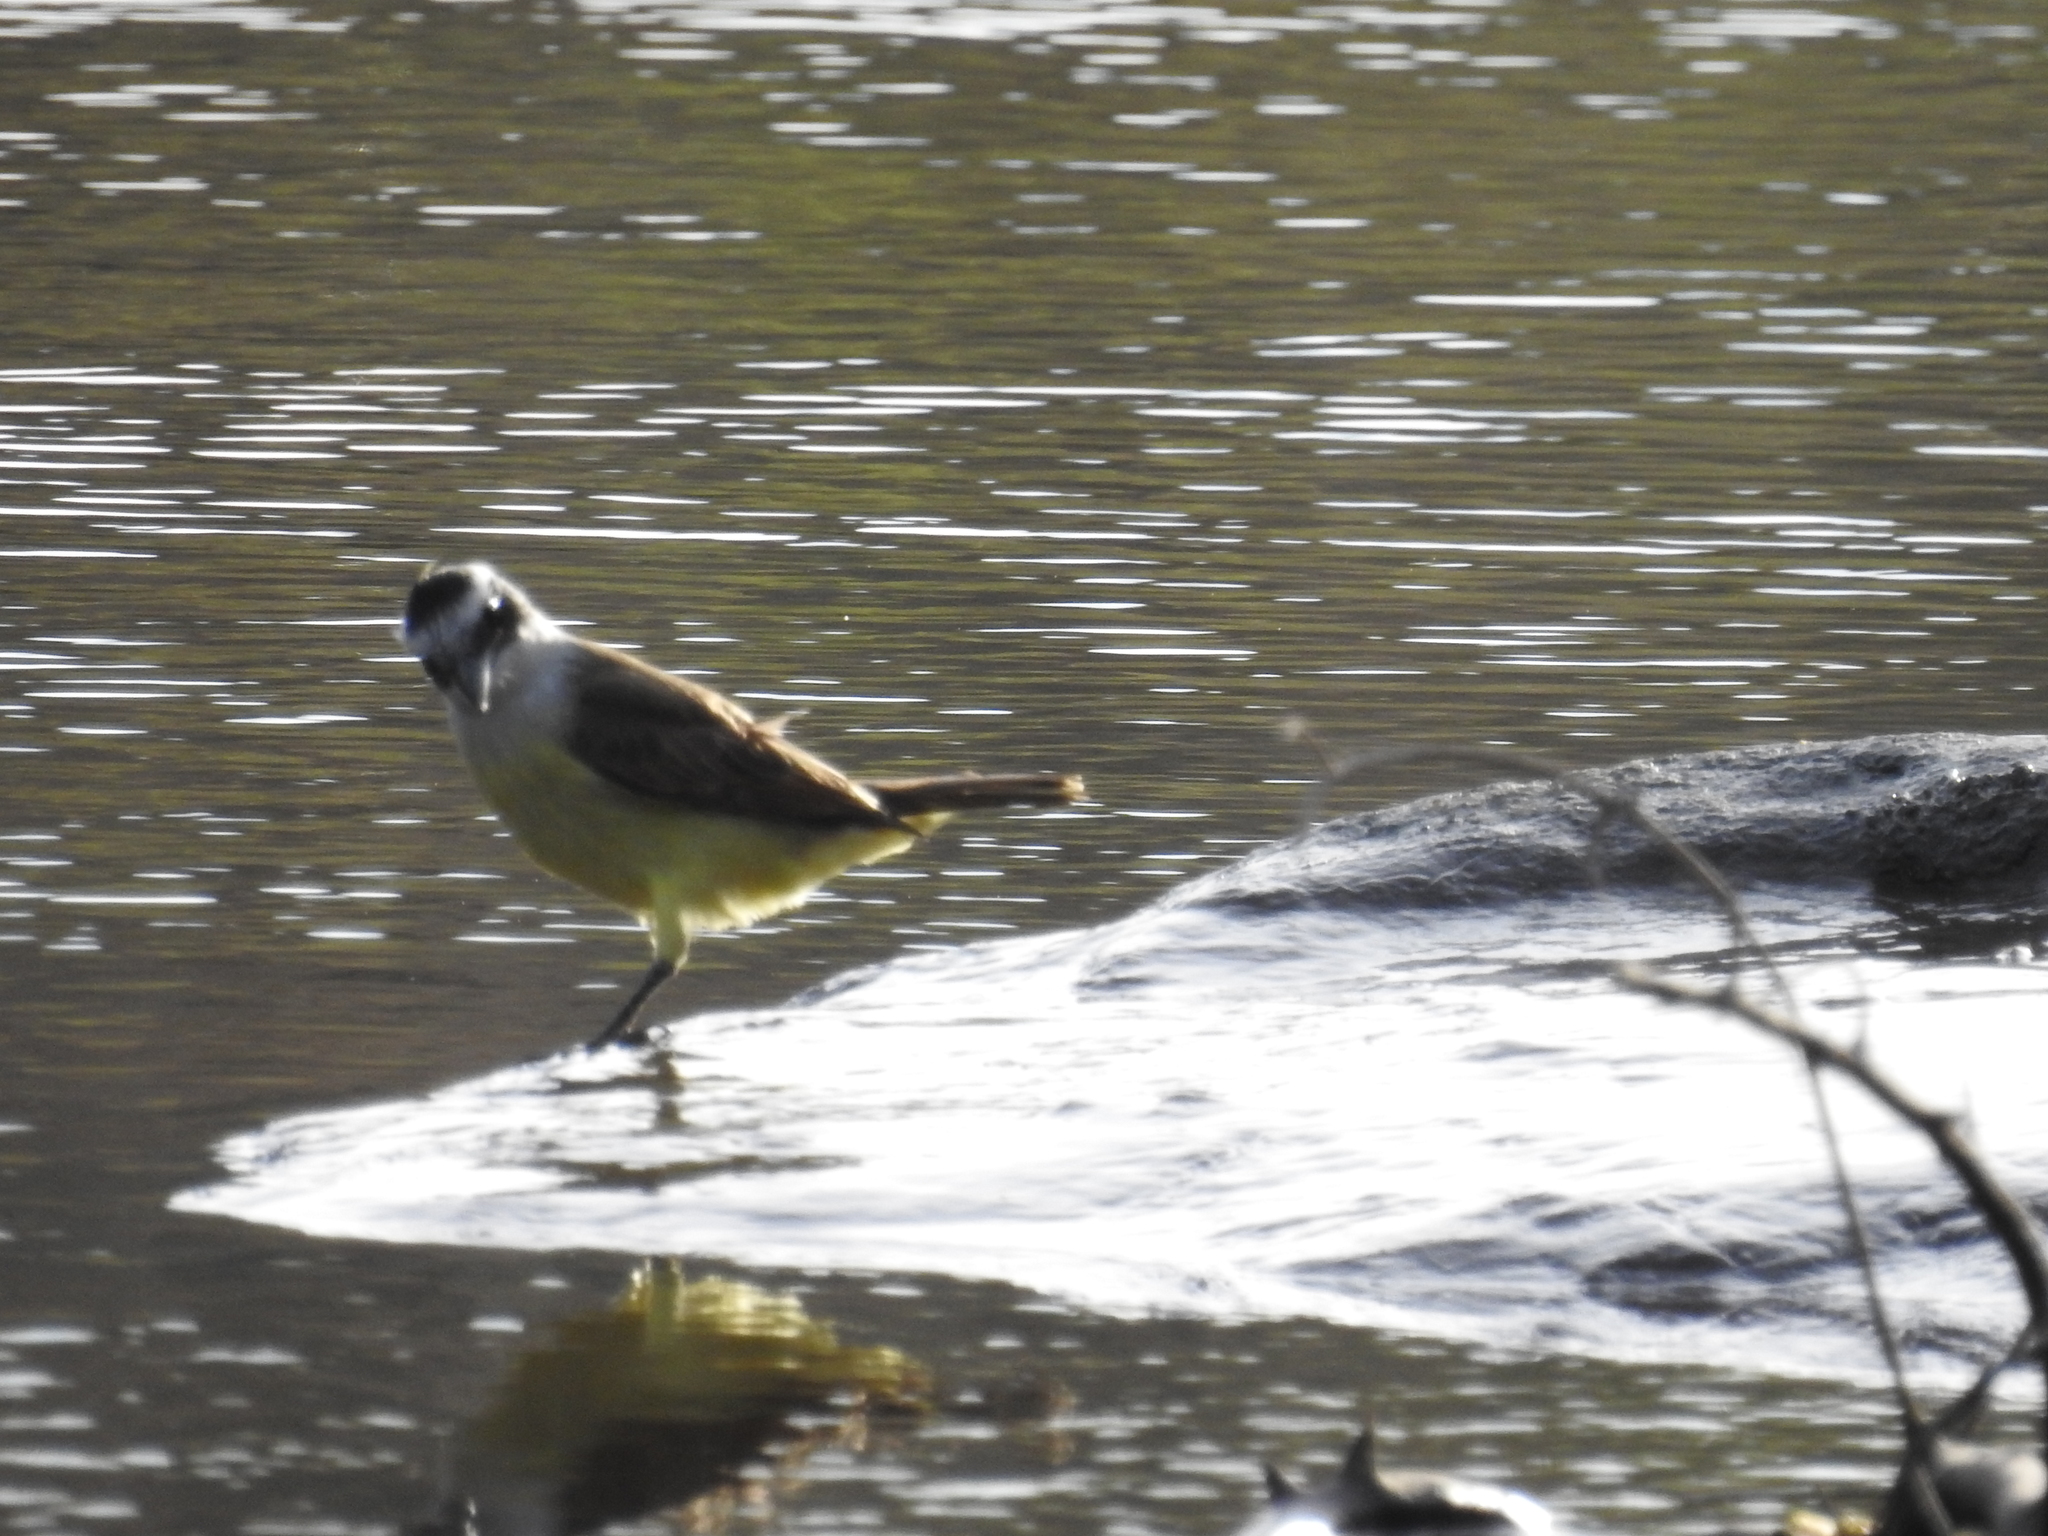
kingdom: Animalia
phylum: Chordata
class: Aves
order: Passeriformes
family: Tyrannidae
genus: Pitangus
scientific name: Pitangus sulphuratus
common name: Great kiskadee
